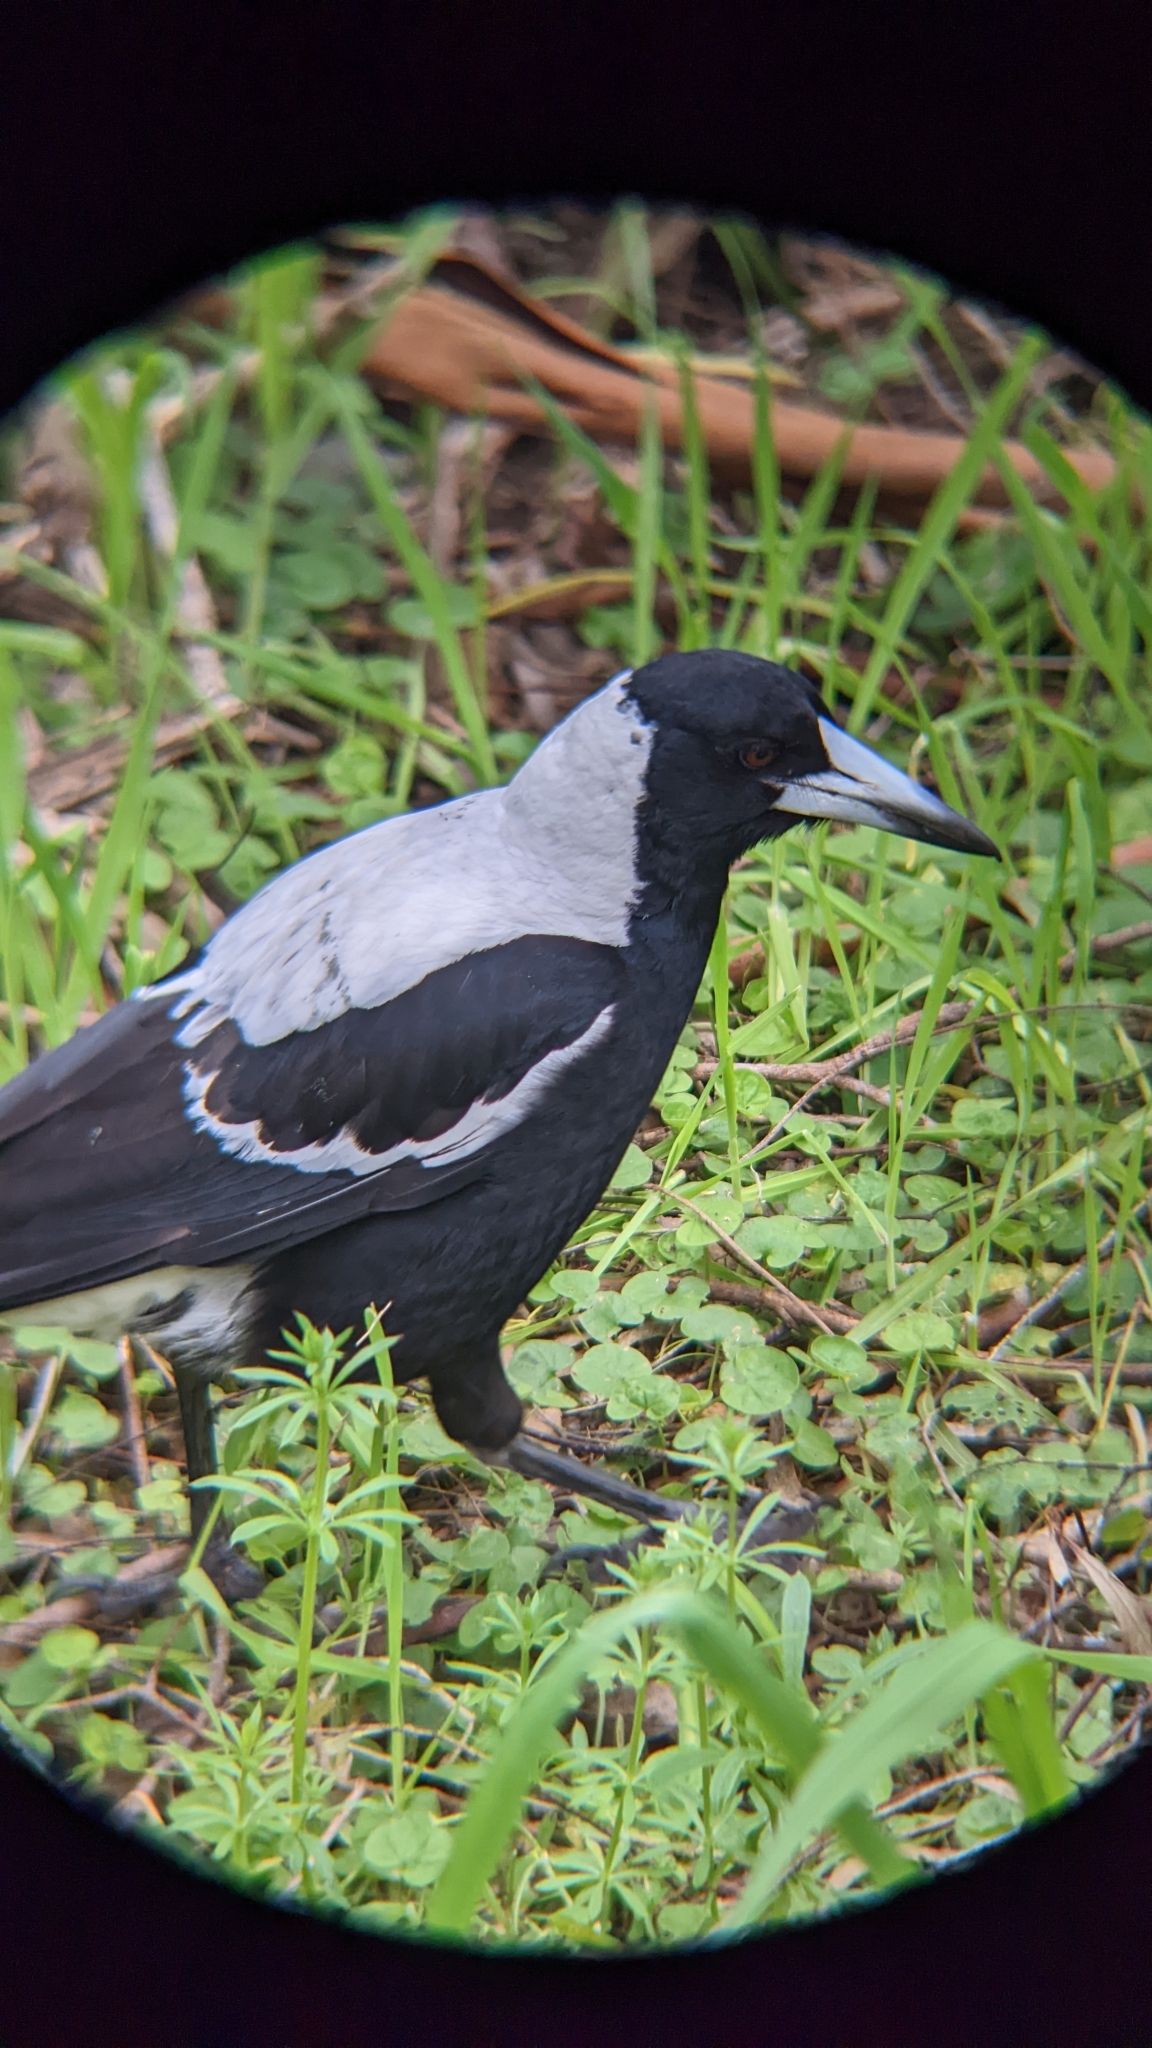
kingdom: Animalia
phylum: Chordata
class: Aves
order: Passeriformes
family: Cracticidae
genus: Gymnorhina
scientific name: Gymnorhina tibicen
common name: Australian magpie
